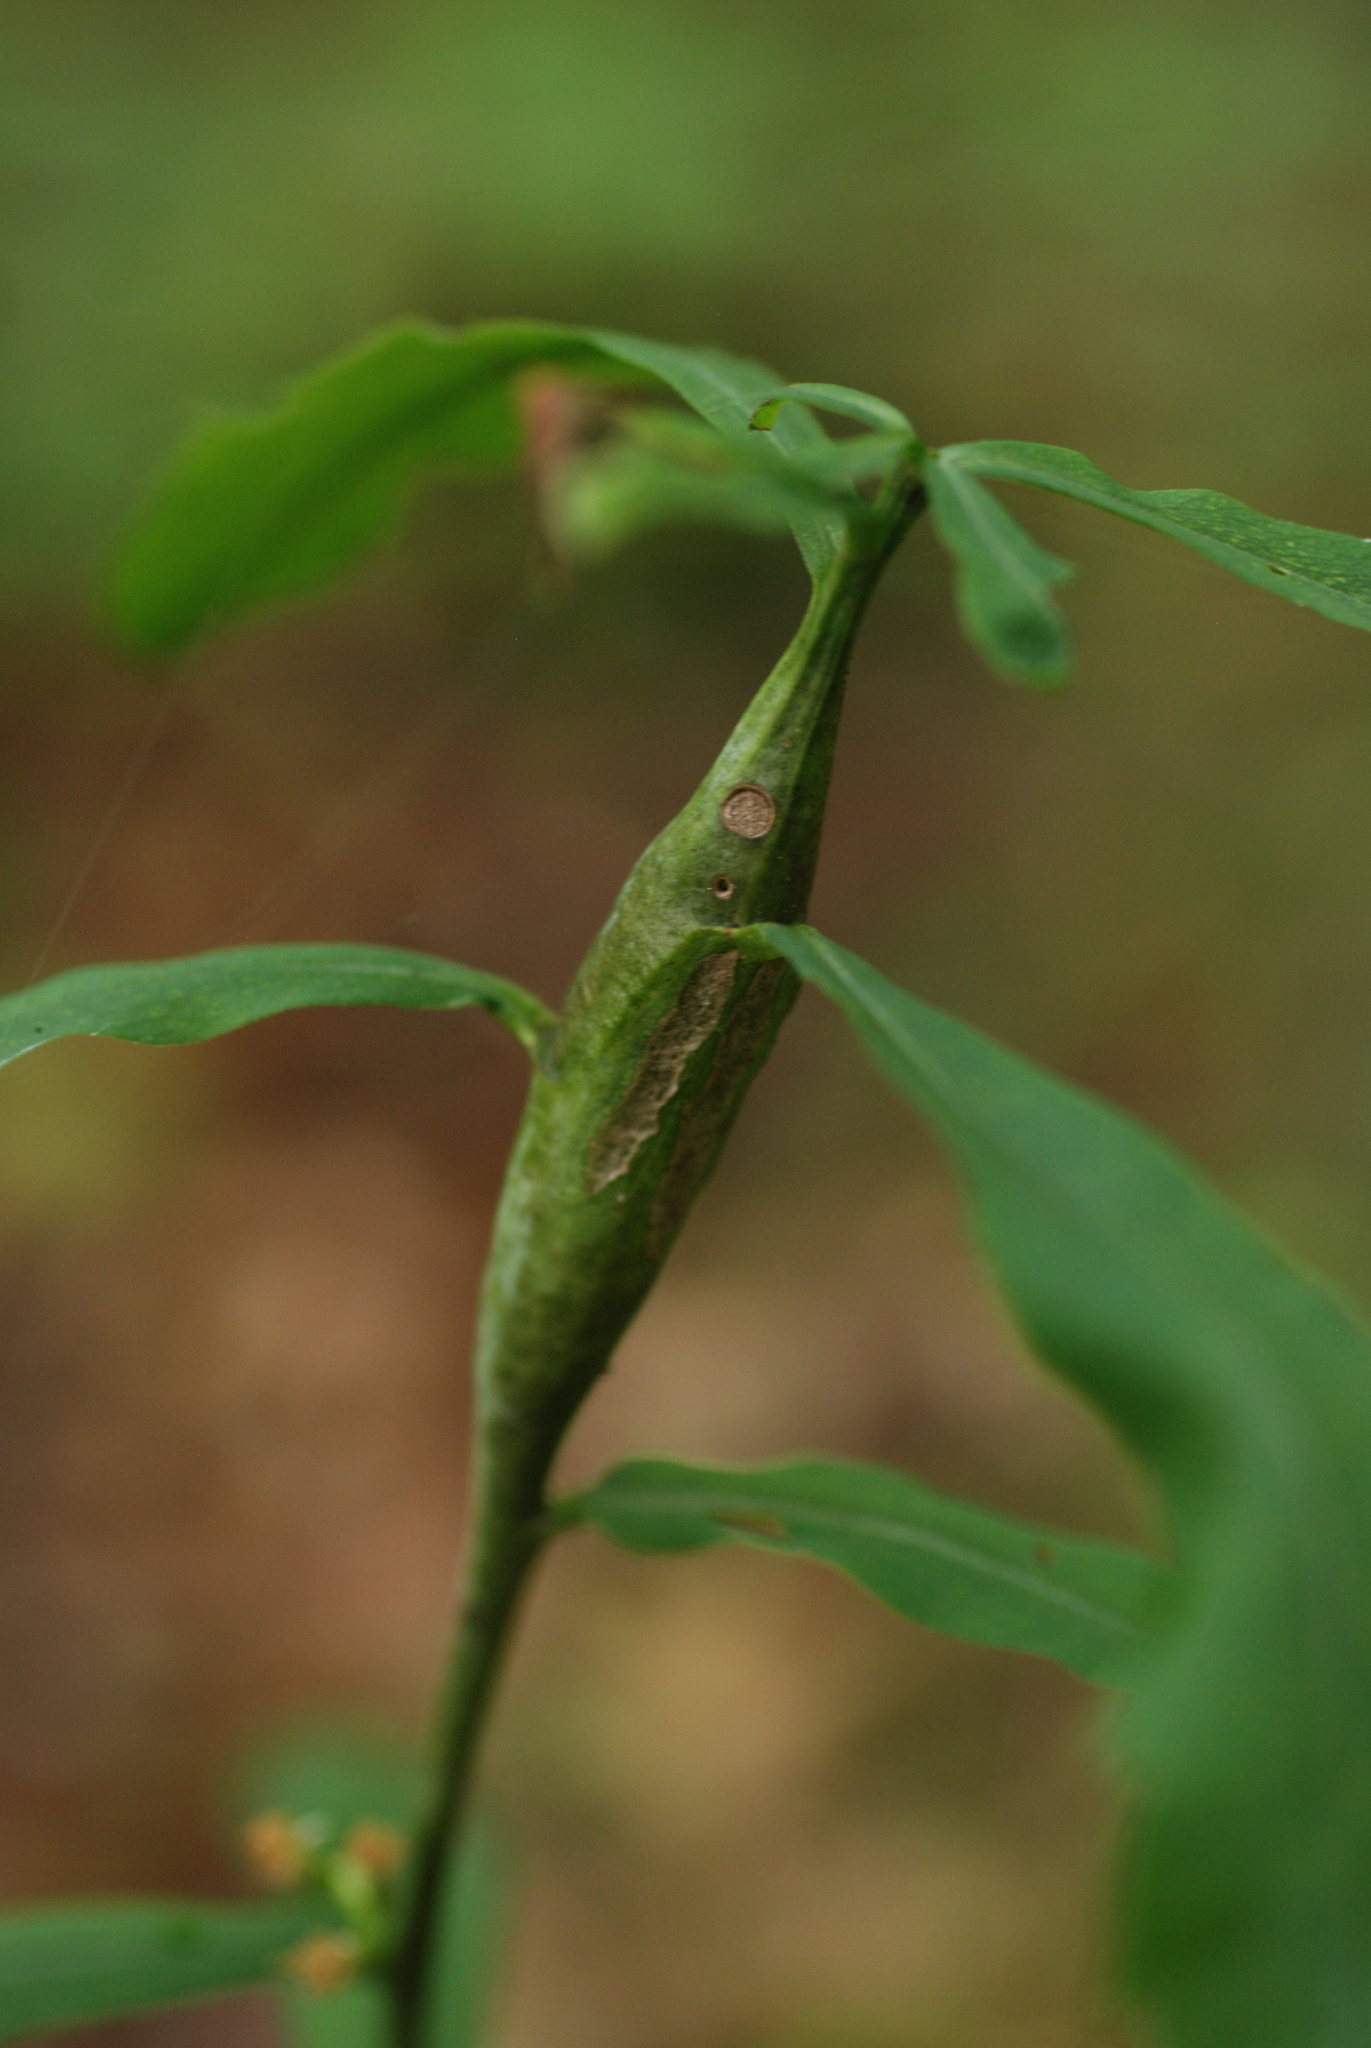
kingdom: Animalia
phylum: Arthropoda
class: Insecta
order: Lepidoptera
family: Gelechiidae
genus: Gnorimoschema
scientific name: Gnorimoschema gallaesolidaginis
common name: Goldenrod elliptical-gall moth
